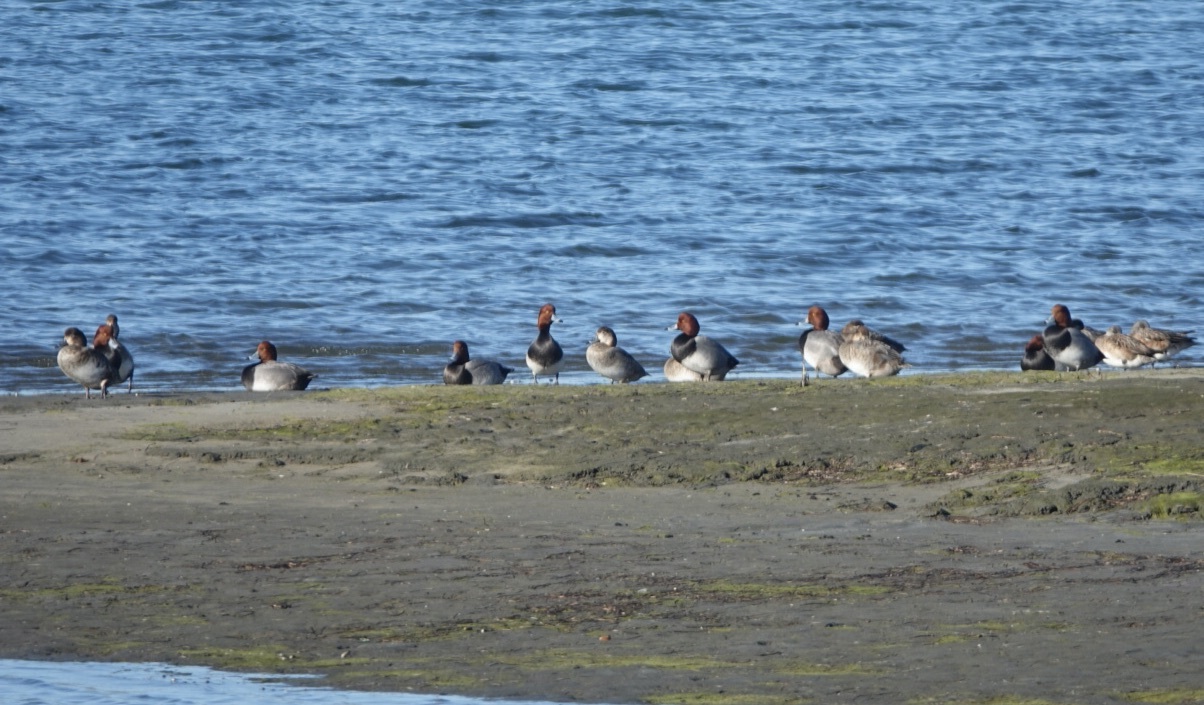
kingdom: Animalia
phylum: Chordata
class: Aves
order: Anseriformes
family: Anatidae
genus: Aythya
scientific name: Aythya americana
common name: Redhead
